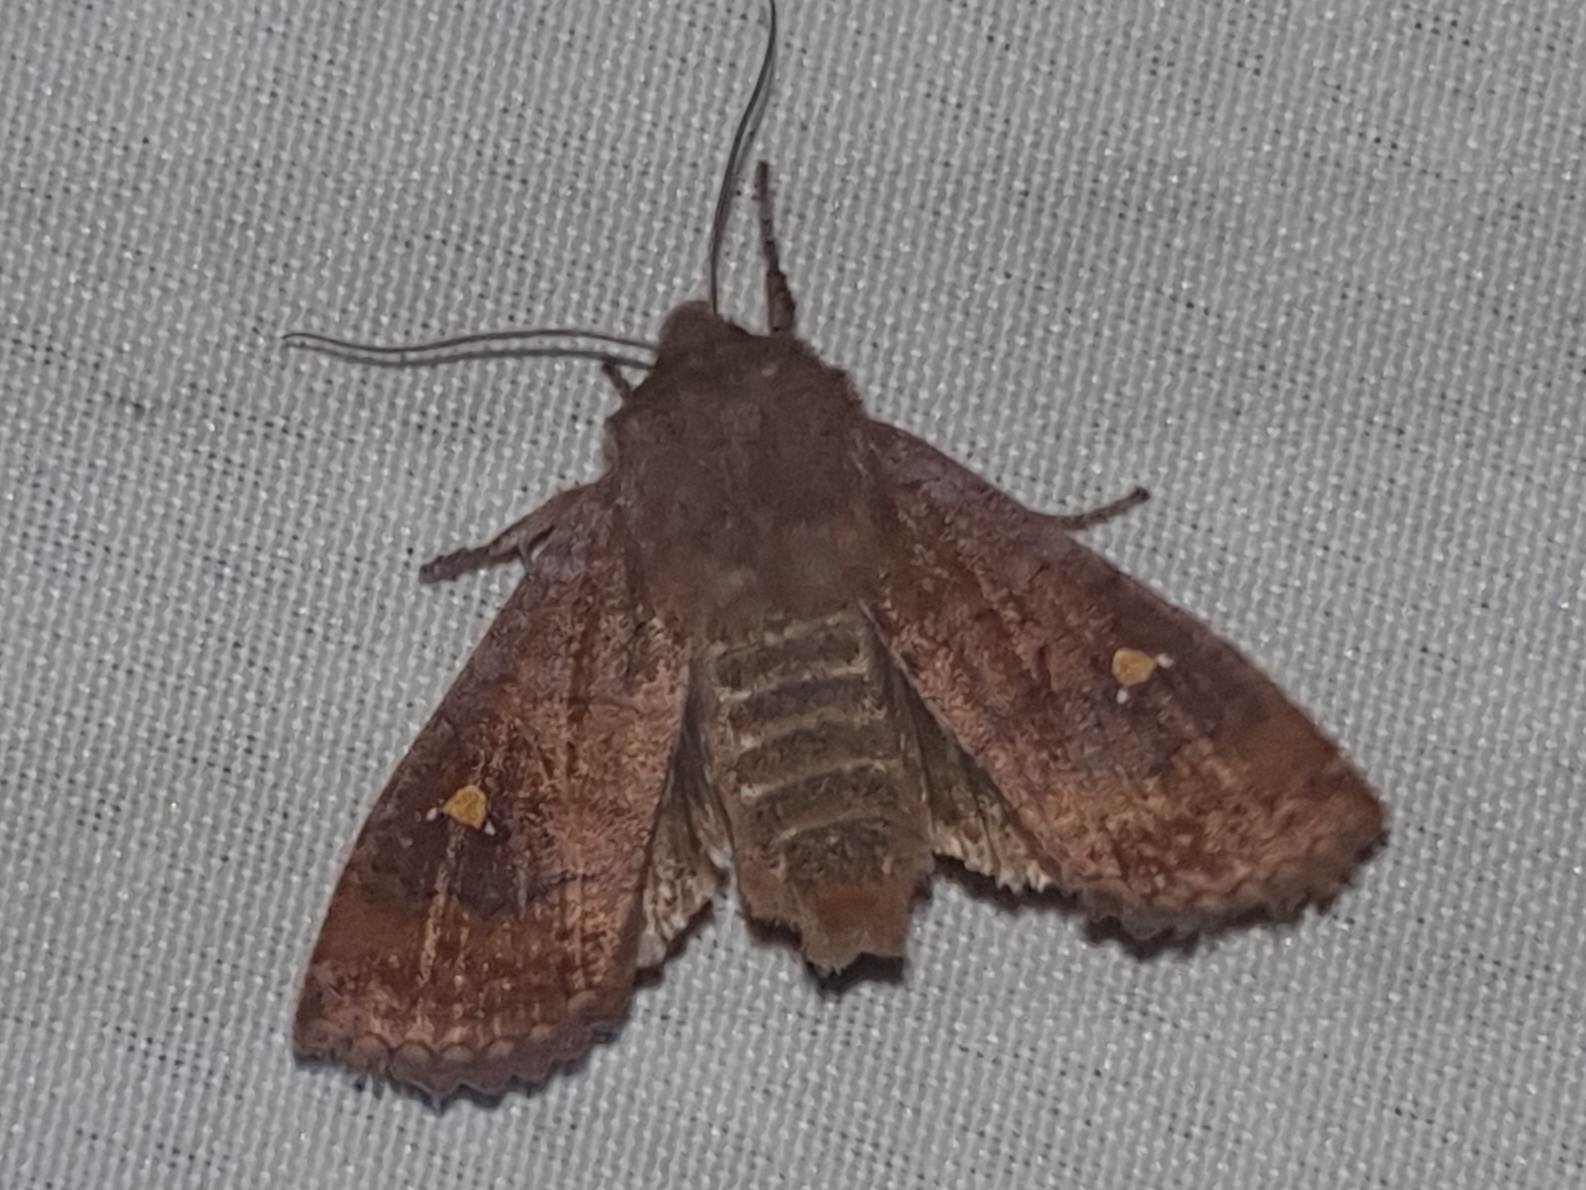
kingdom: Animalia
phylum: Arthropoda
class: Insecta
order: Lepidoptera
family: Noctuidae
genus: Eupsilia
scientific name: Eupsilia transversa
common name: Satellite
